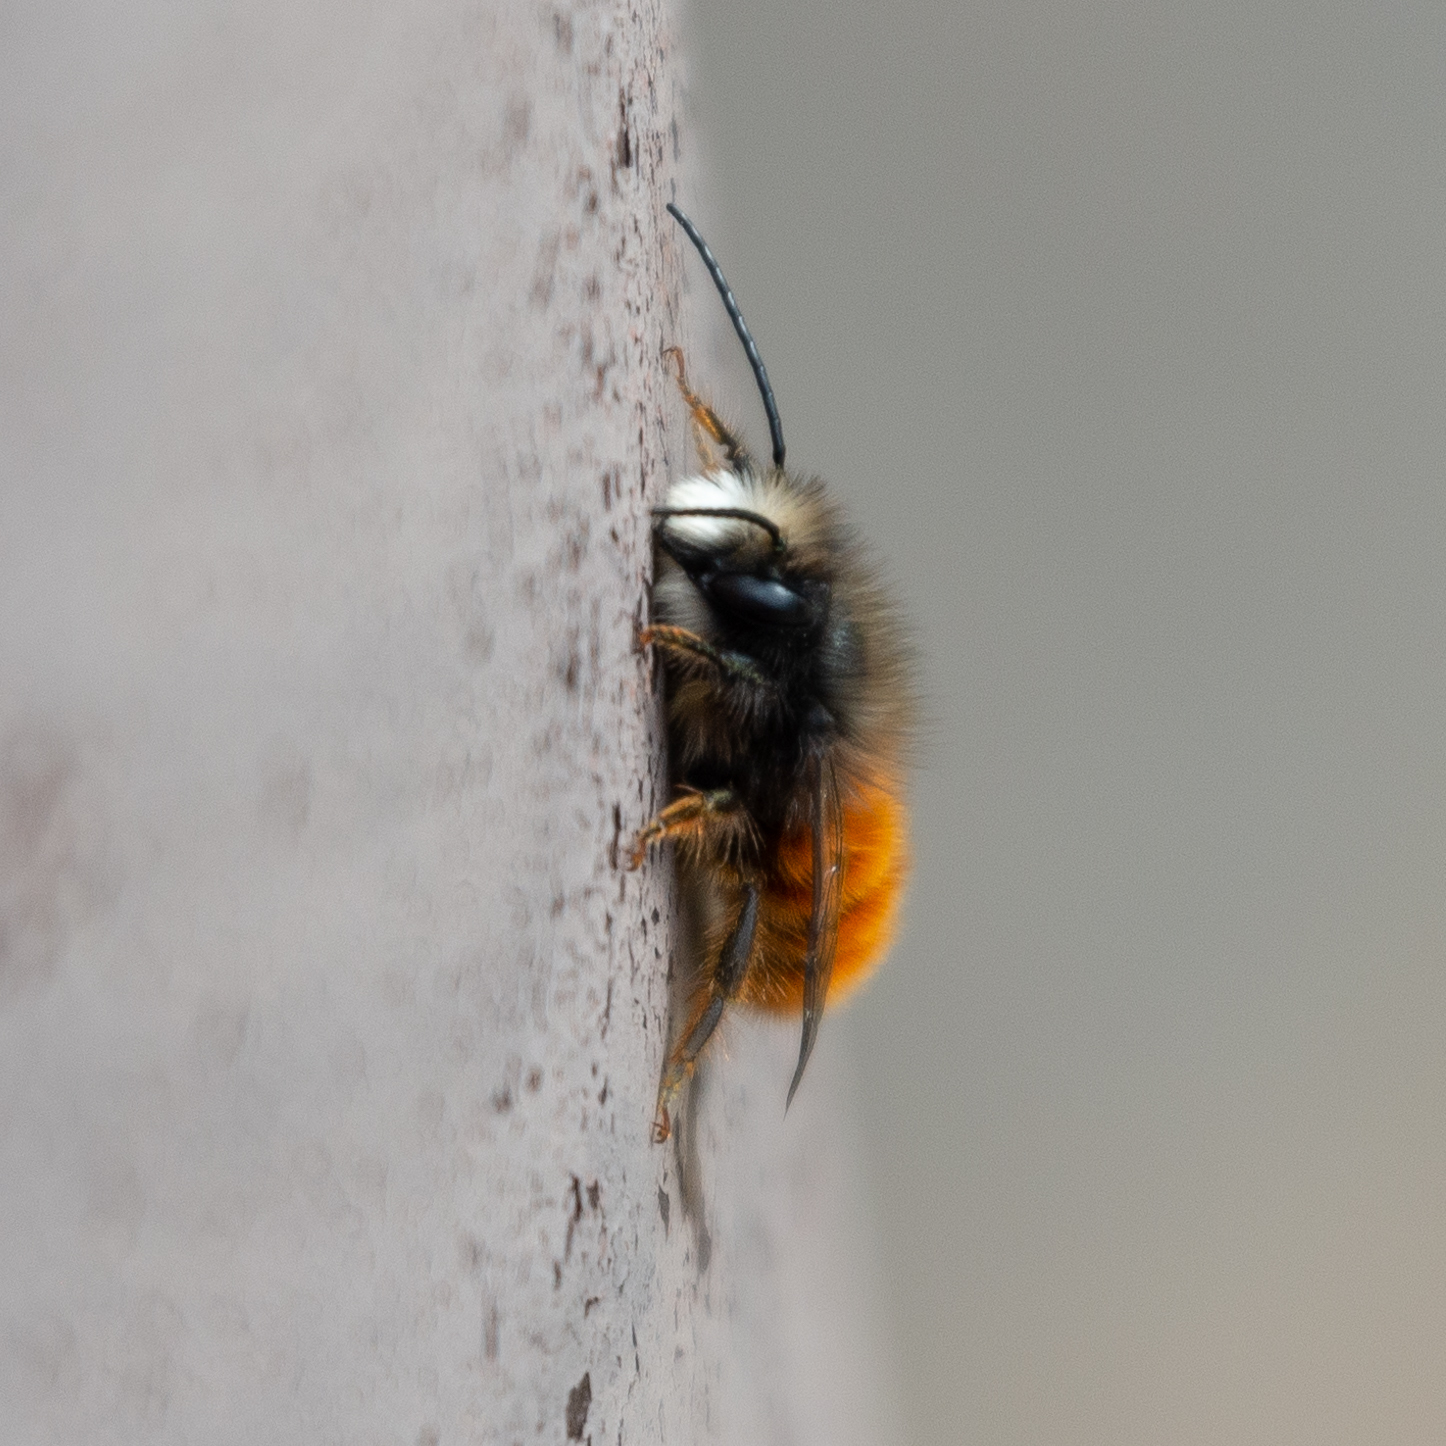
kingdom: Animalia
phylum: Arthropoda
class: Insecta
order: Hymenoptera
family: Megachilidae
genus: Osmia
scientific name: Osmia cornuta
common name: Mason bee
